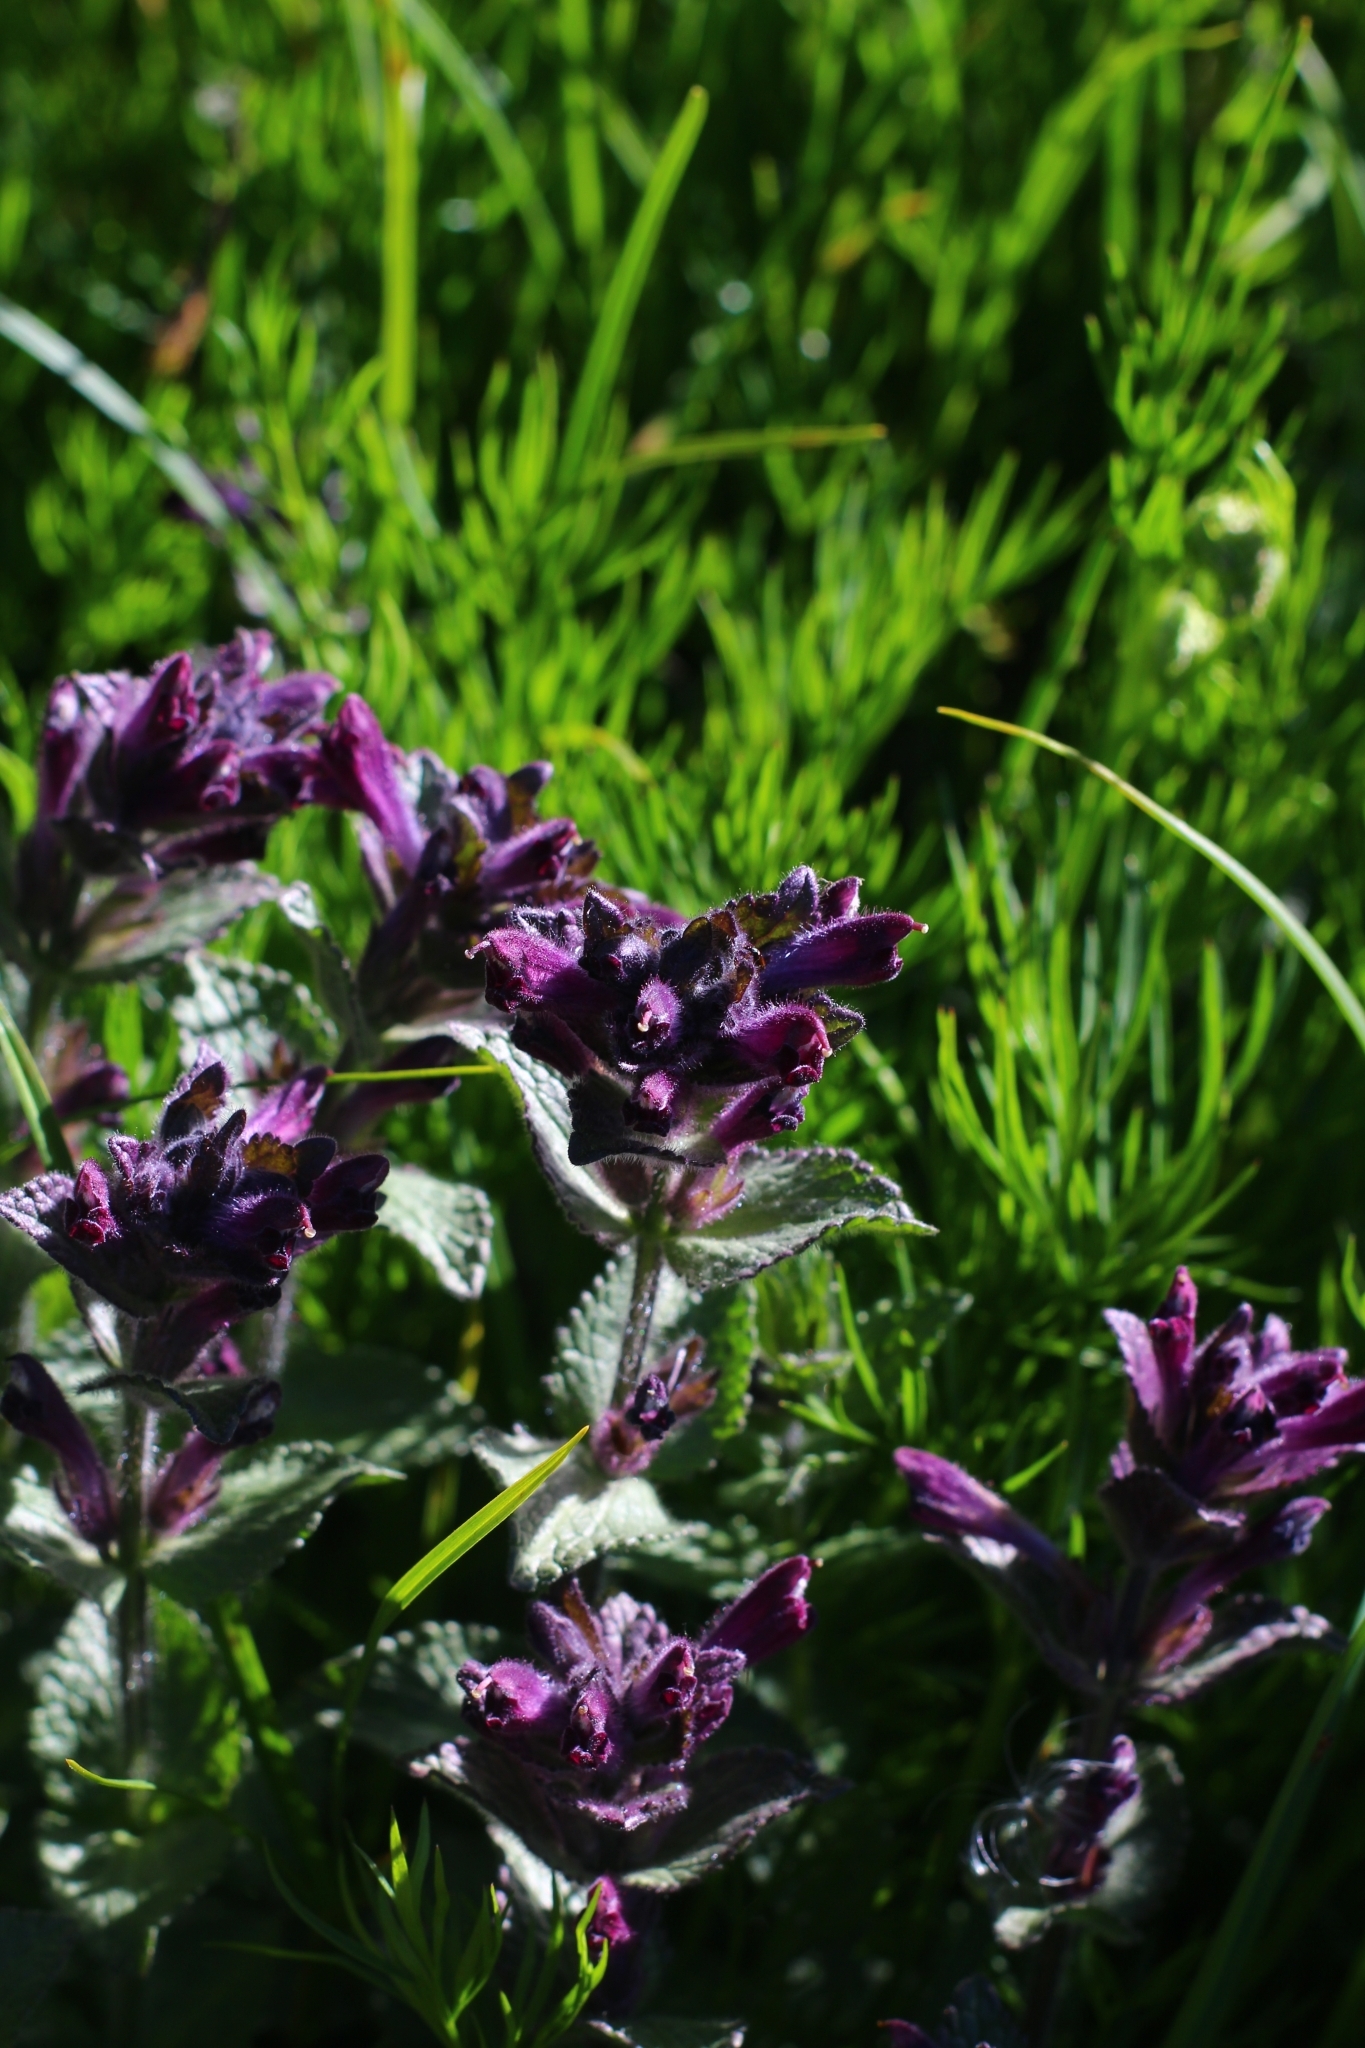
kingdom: Plantae
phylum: Tracheophyta
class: Magnoliopsida
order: Lamiales
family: Orobanchaceae
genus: Bartsia
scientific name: Bartsia alpina
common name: Alpine bartsia
